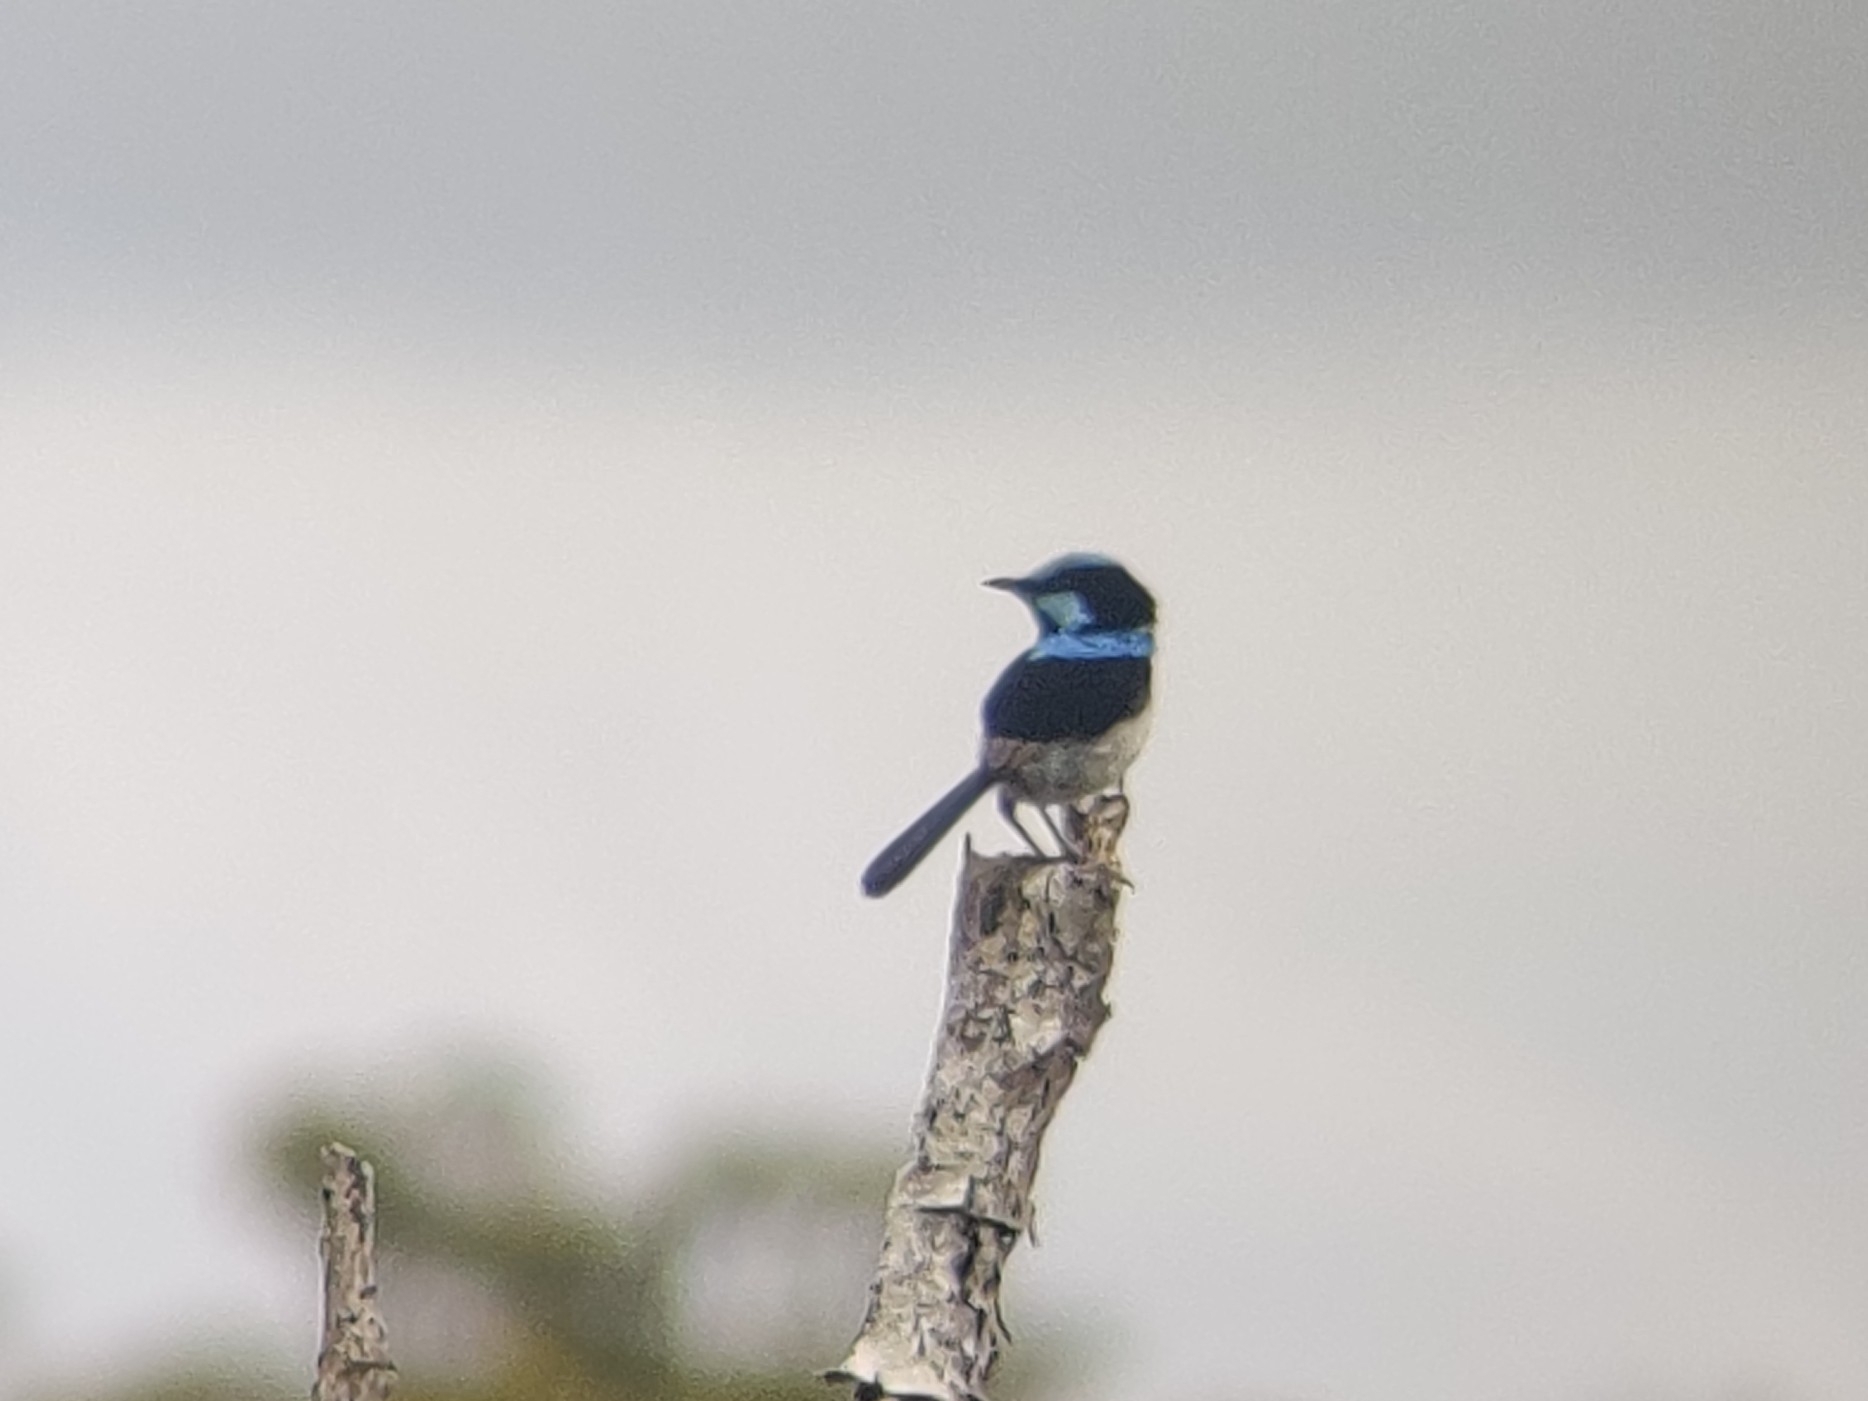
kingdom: Animalia
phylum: Chordata
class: Aves
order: Passeriformes
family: Maluridae
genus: Malurus
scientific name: Malurus cyaneus
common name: Superb fairywren
